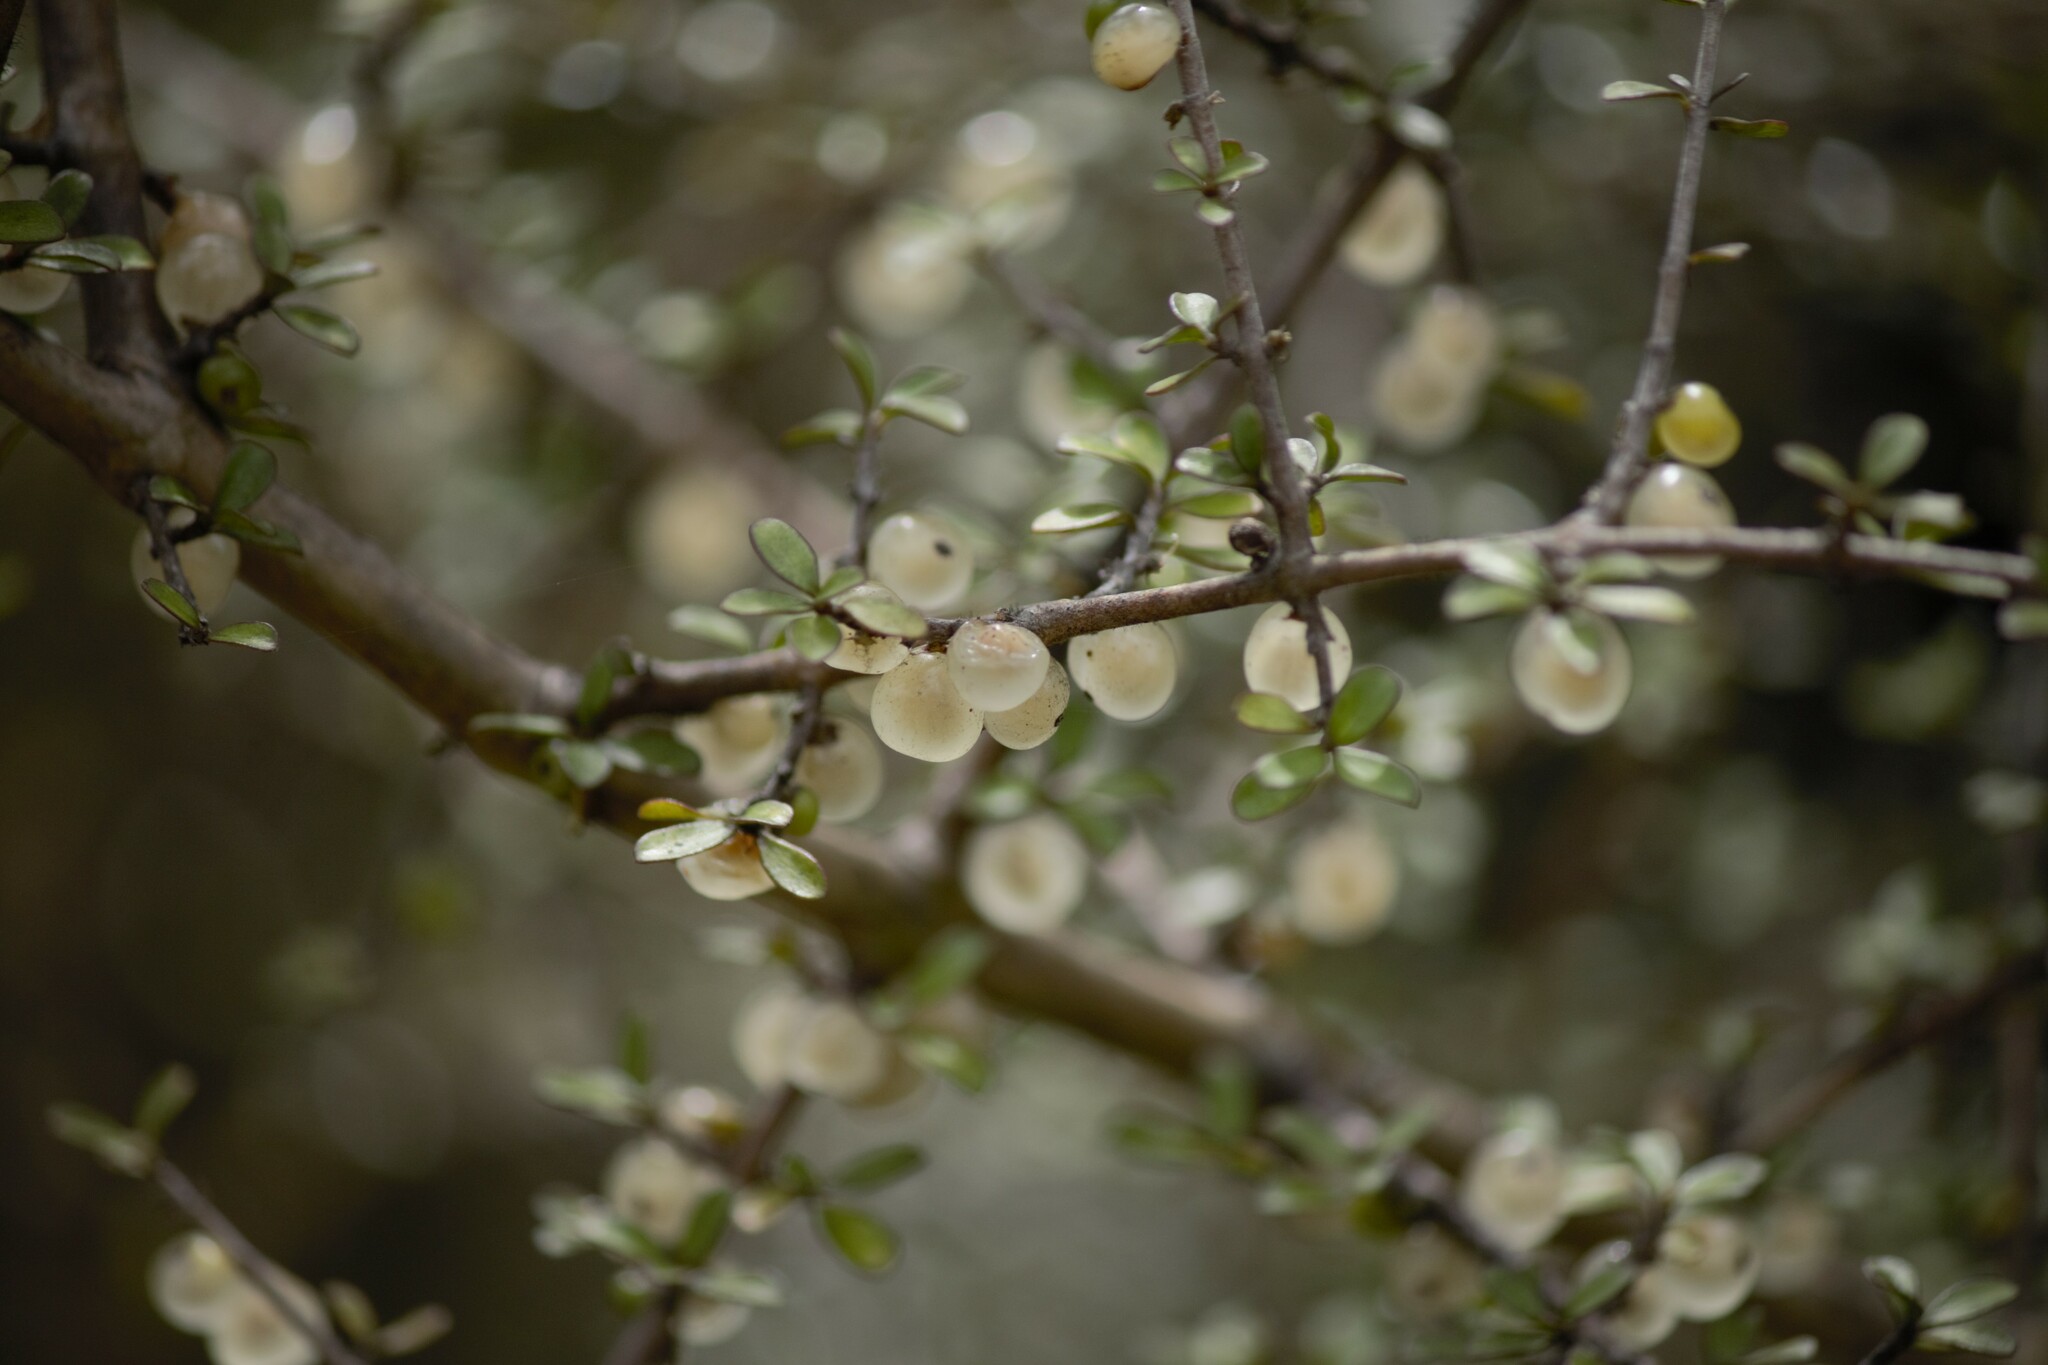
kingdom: Plantae
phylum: Tracheophyta
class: Magnoliopsida
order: Gentianales
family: Rubiaceae
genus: Coprosma
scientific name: Coprosma dumosa
